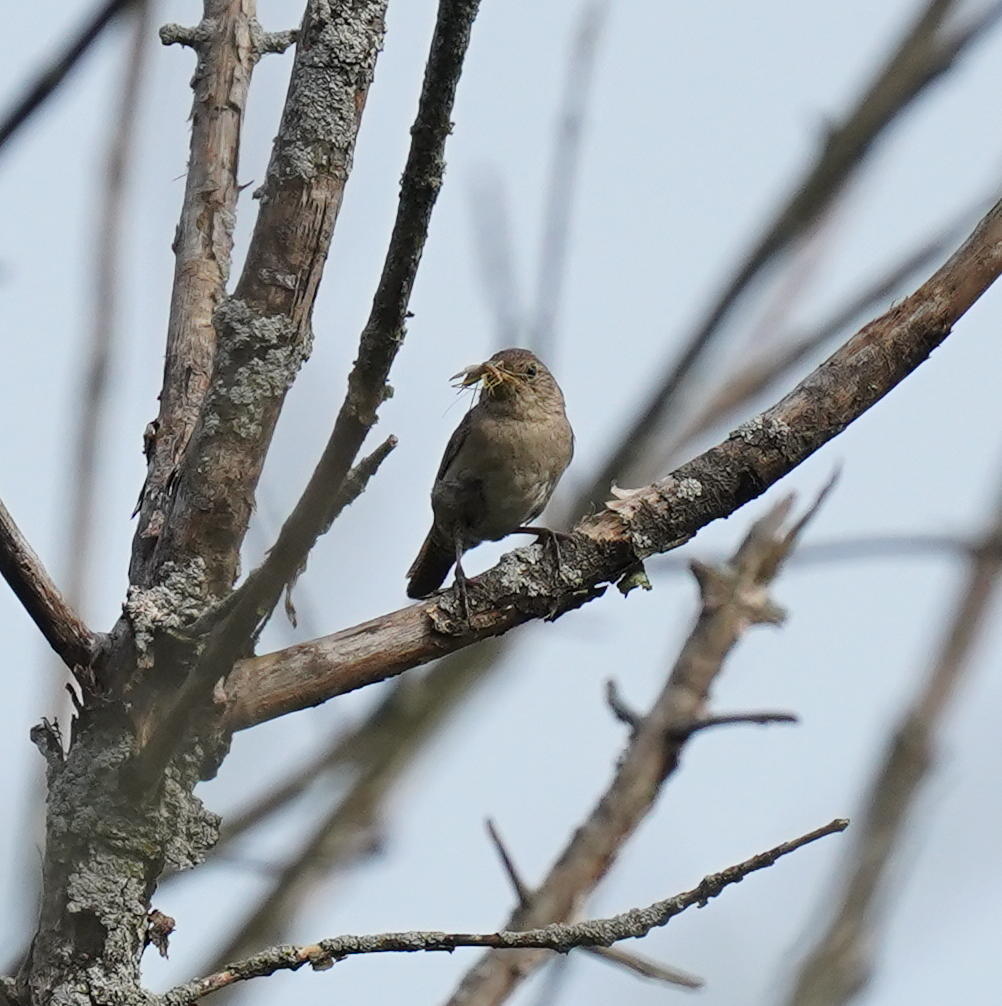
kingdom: Animalia
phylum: Chordata
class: Aves
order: Passeriformes
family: Troglodytidae
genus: Troglodytes
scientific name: Troglodytes aedon
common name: House wren
